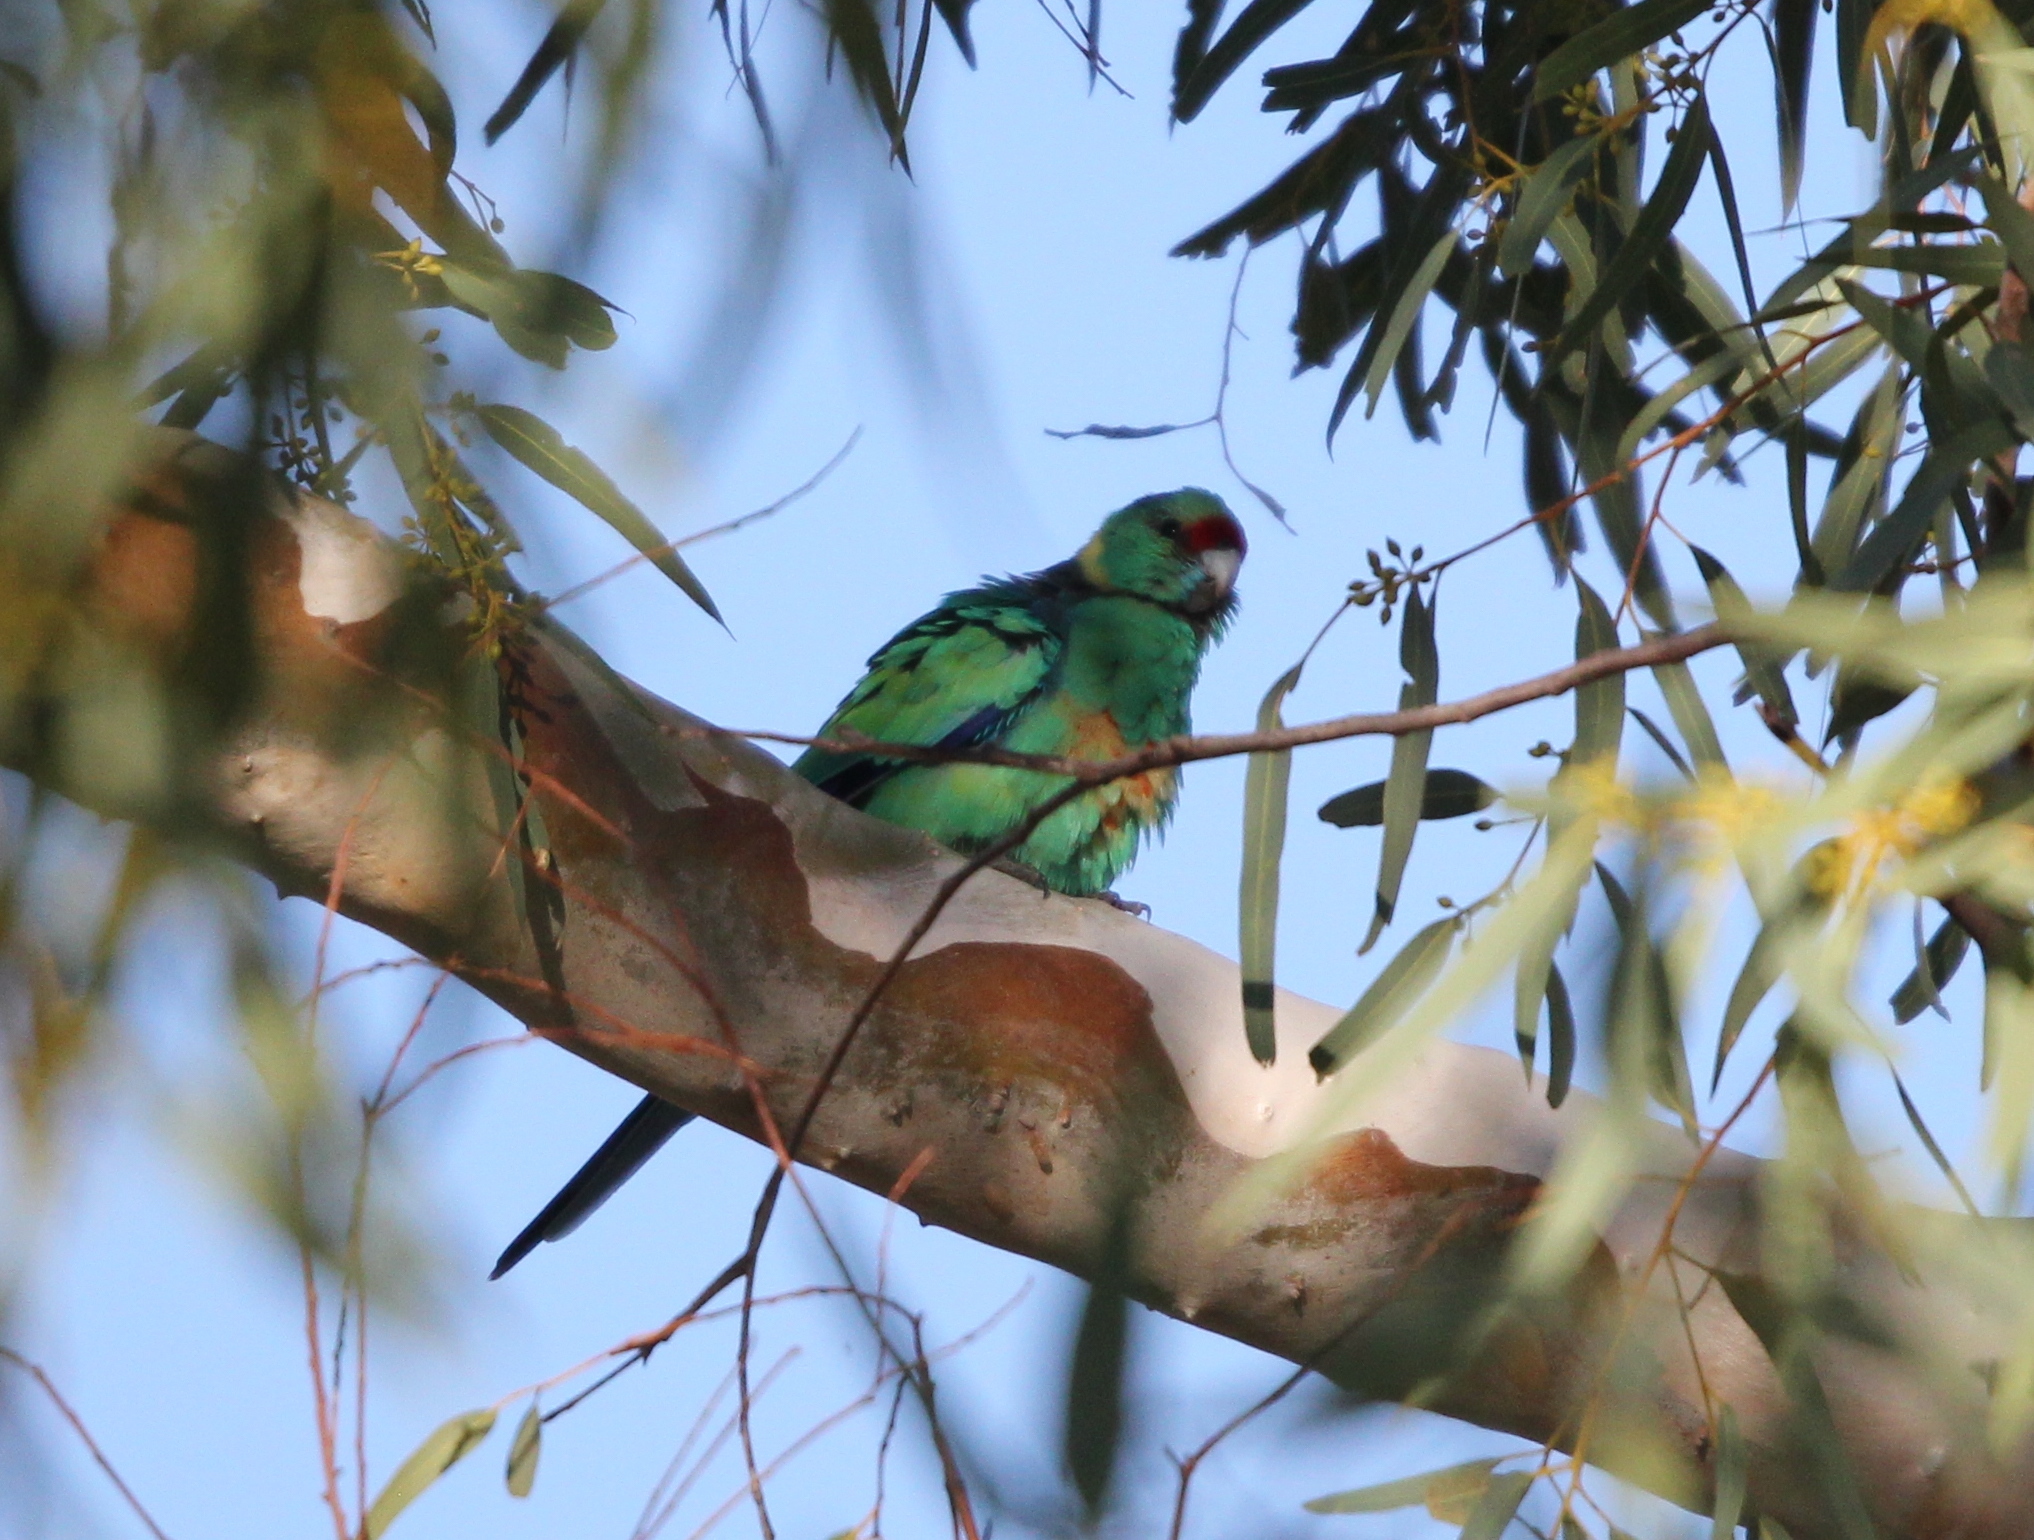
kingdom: Animalia
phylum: Chordata
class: Aves
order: Psittaciformes
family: Psittacidae
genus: Barnardius
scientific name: Barnardius zonarius
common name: Australian ringneck
